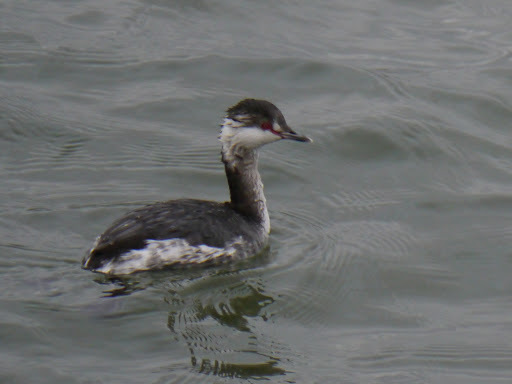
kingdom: Animalia
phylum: Chordata
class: Aves
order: Podicipediformes
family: Podicipedidae
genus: Podiceps
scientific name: Podiceps auritus
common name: Horned grebe
